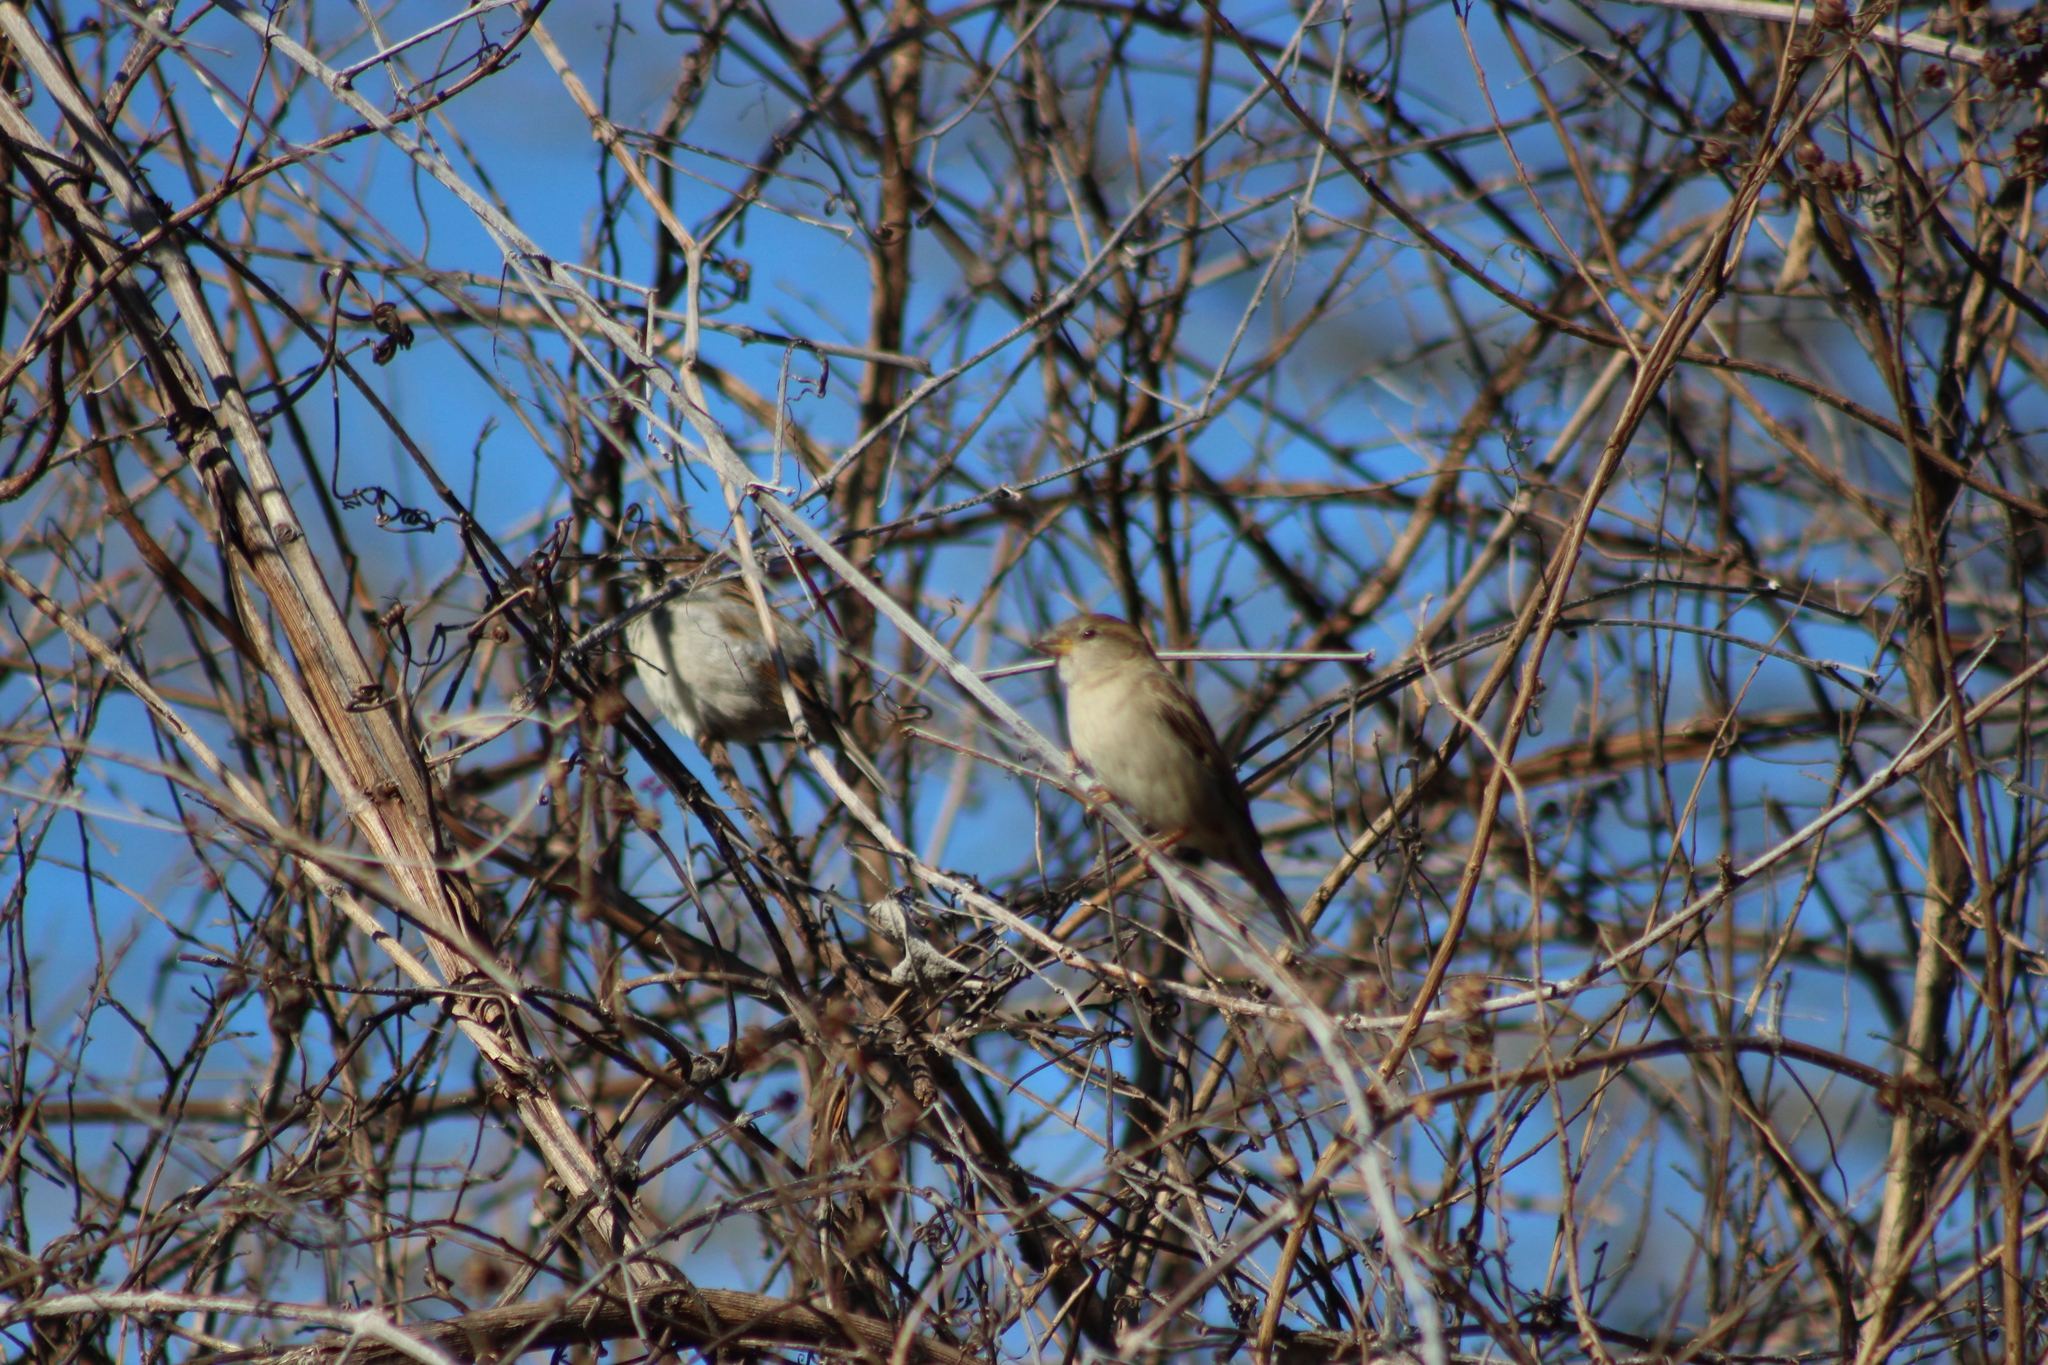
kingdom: Animalia
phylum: Chordata
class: Aves
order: Passeriformes
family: Passeridae
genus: Passer
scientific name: Passer domesticus
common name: House sparrow
